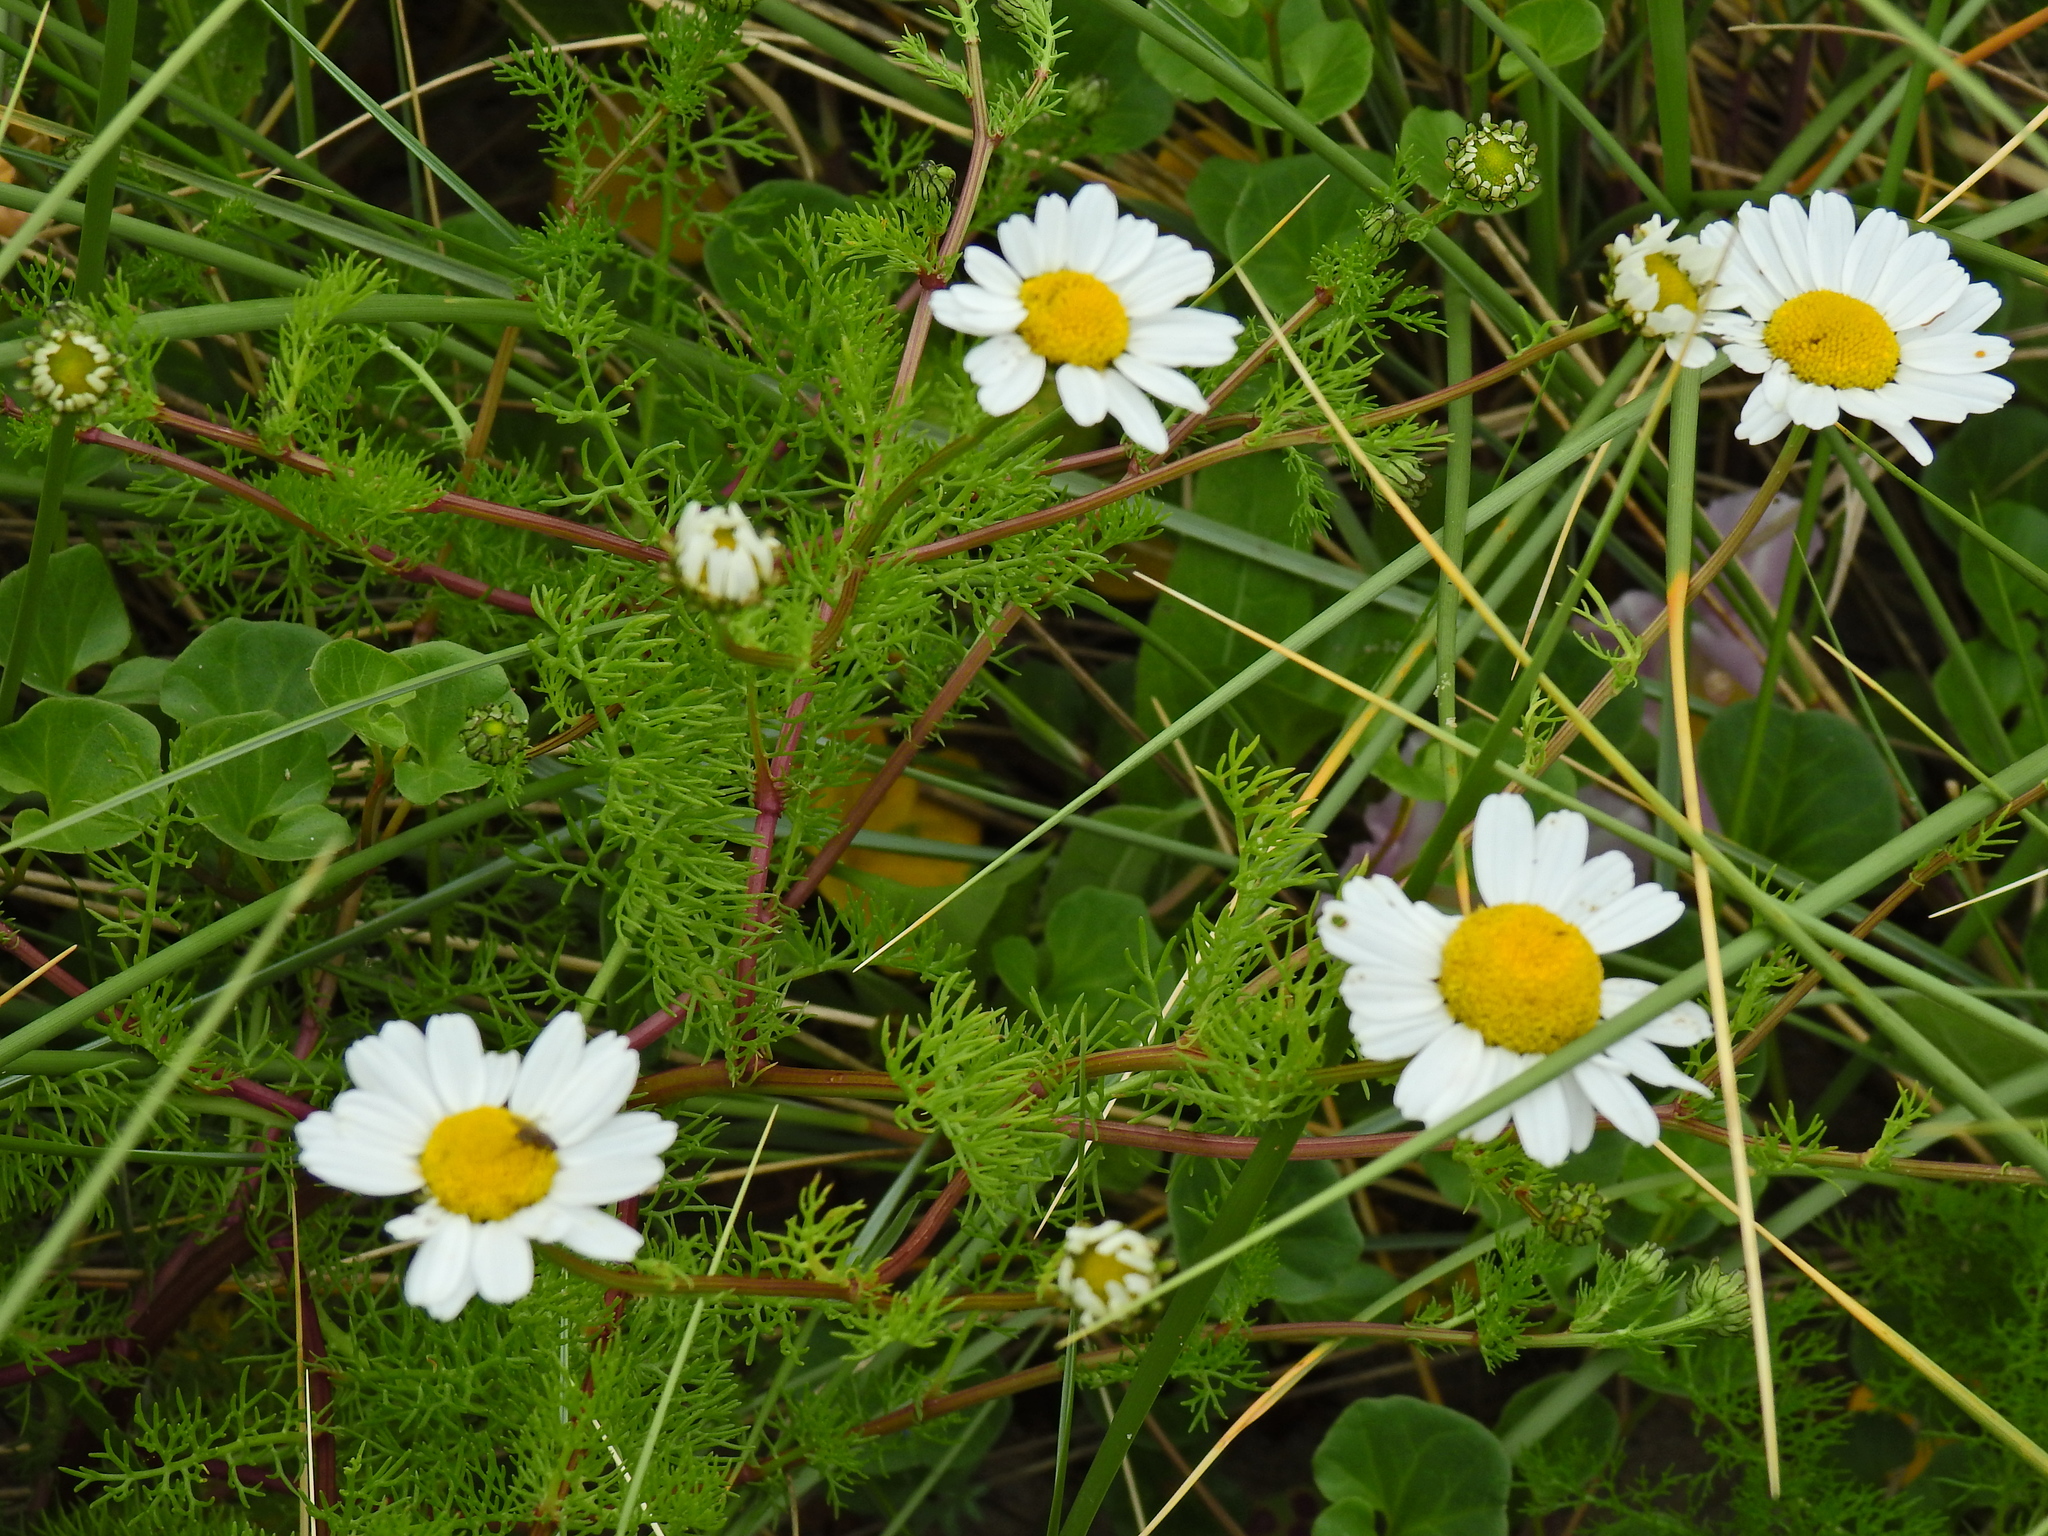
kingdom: Plantae
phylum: Tracheophyta
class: Magnoliopsida
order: Asterales
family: Asteraceae
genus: Tripleurospermum
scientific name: Tripleurospermum maritimum
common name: Sea mayweed
